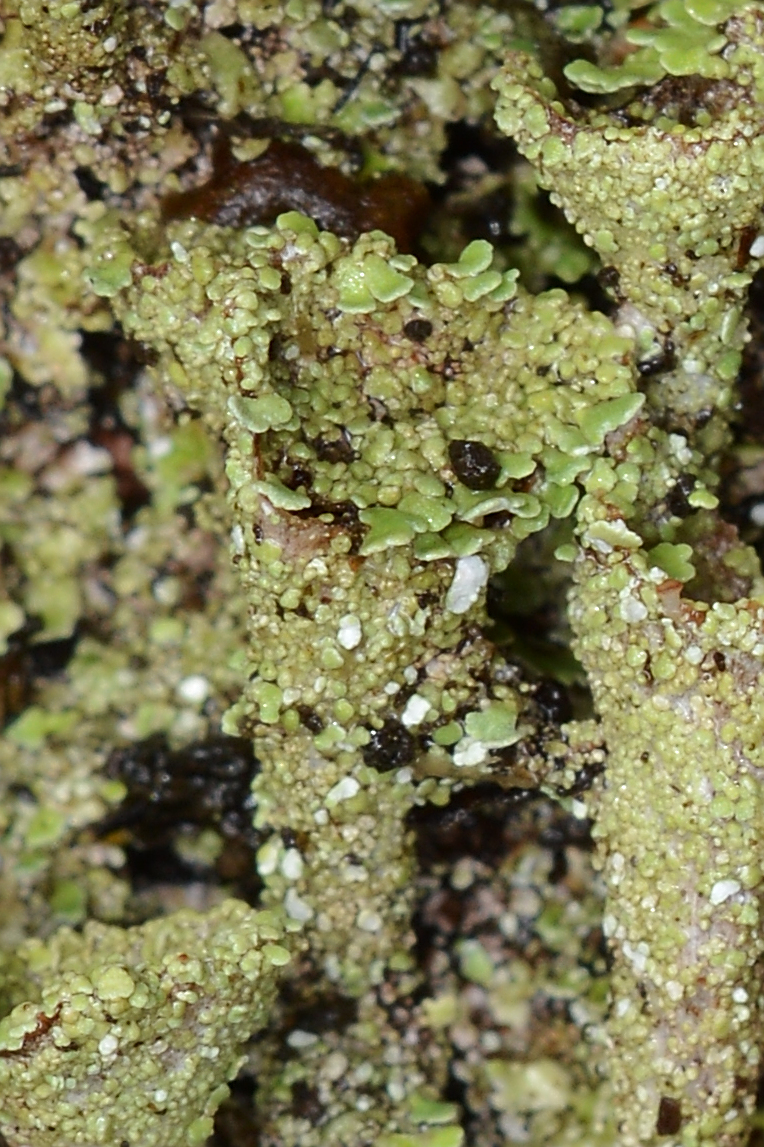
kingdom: Fungi
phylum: Ascomycota
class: Lecanoromycetes
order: Lecanorales
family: Cladoniaceae
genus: Cladonia
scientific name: Cladonia pyxidata
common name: Pebbled pixie cup
